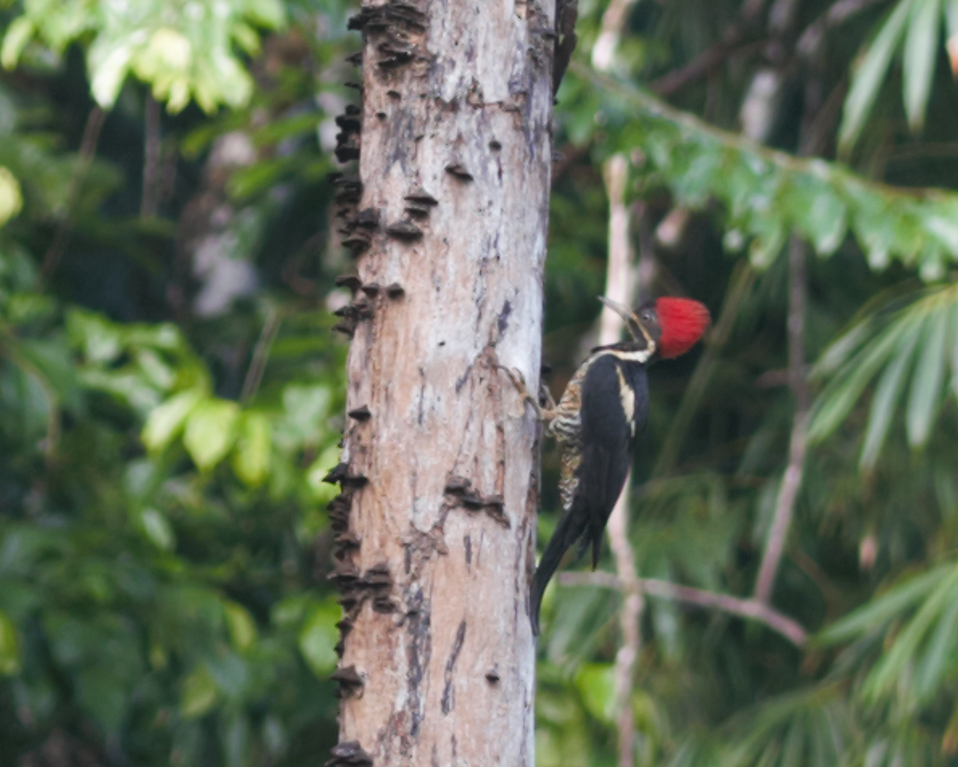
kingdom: Animalia
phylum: Chordata
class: Aves
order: Piciformes
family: Picidae
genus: Dryocopus
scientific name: Dryocopus lineatus
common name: Lineated woodpecker
